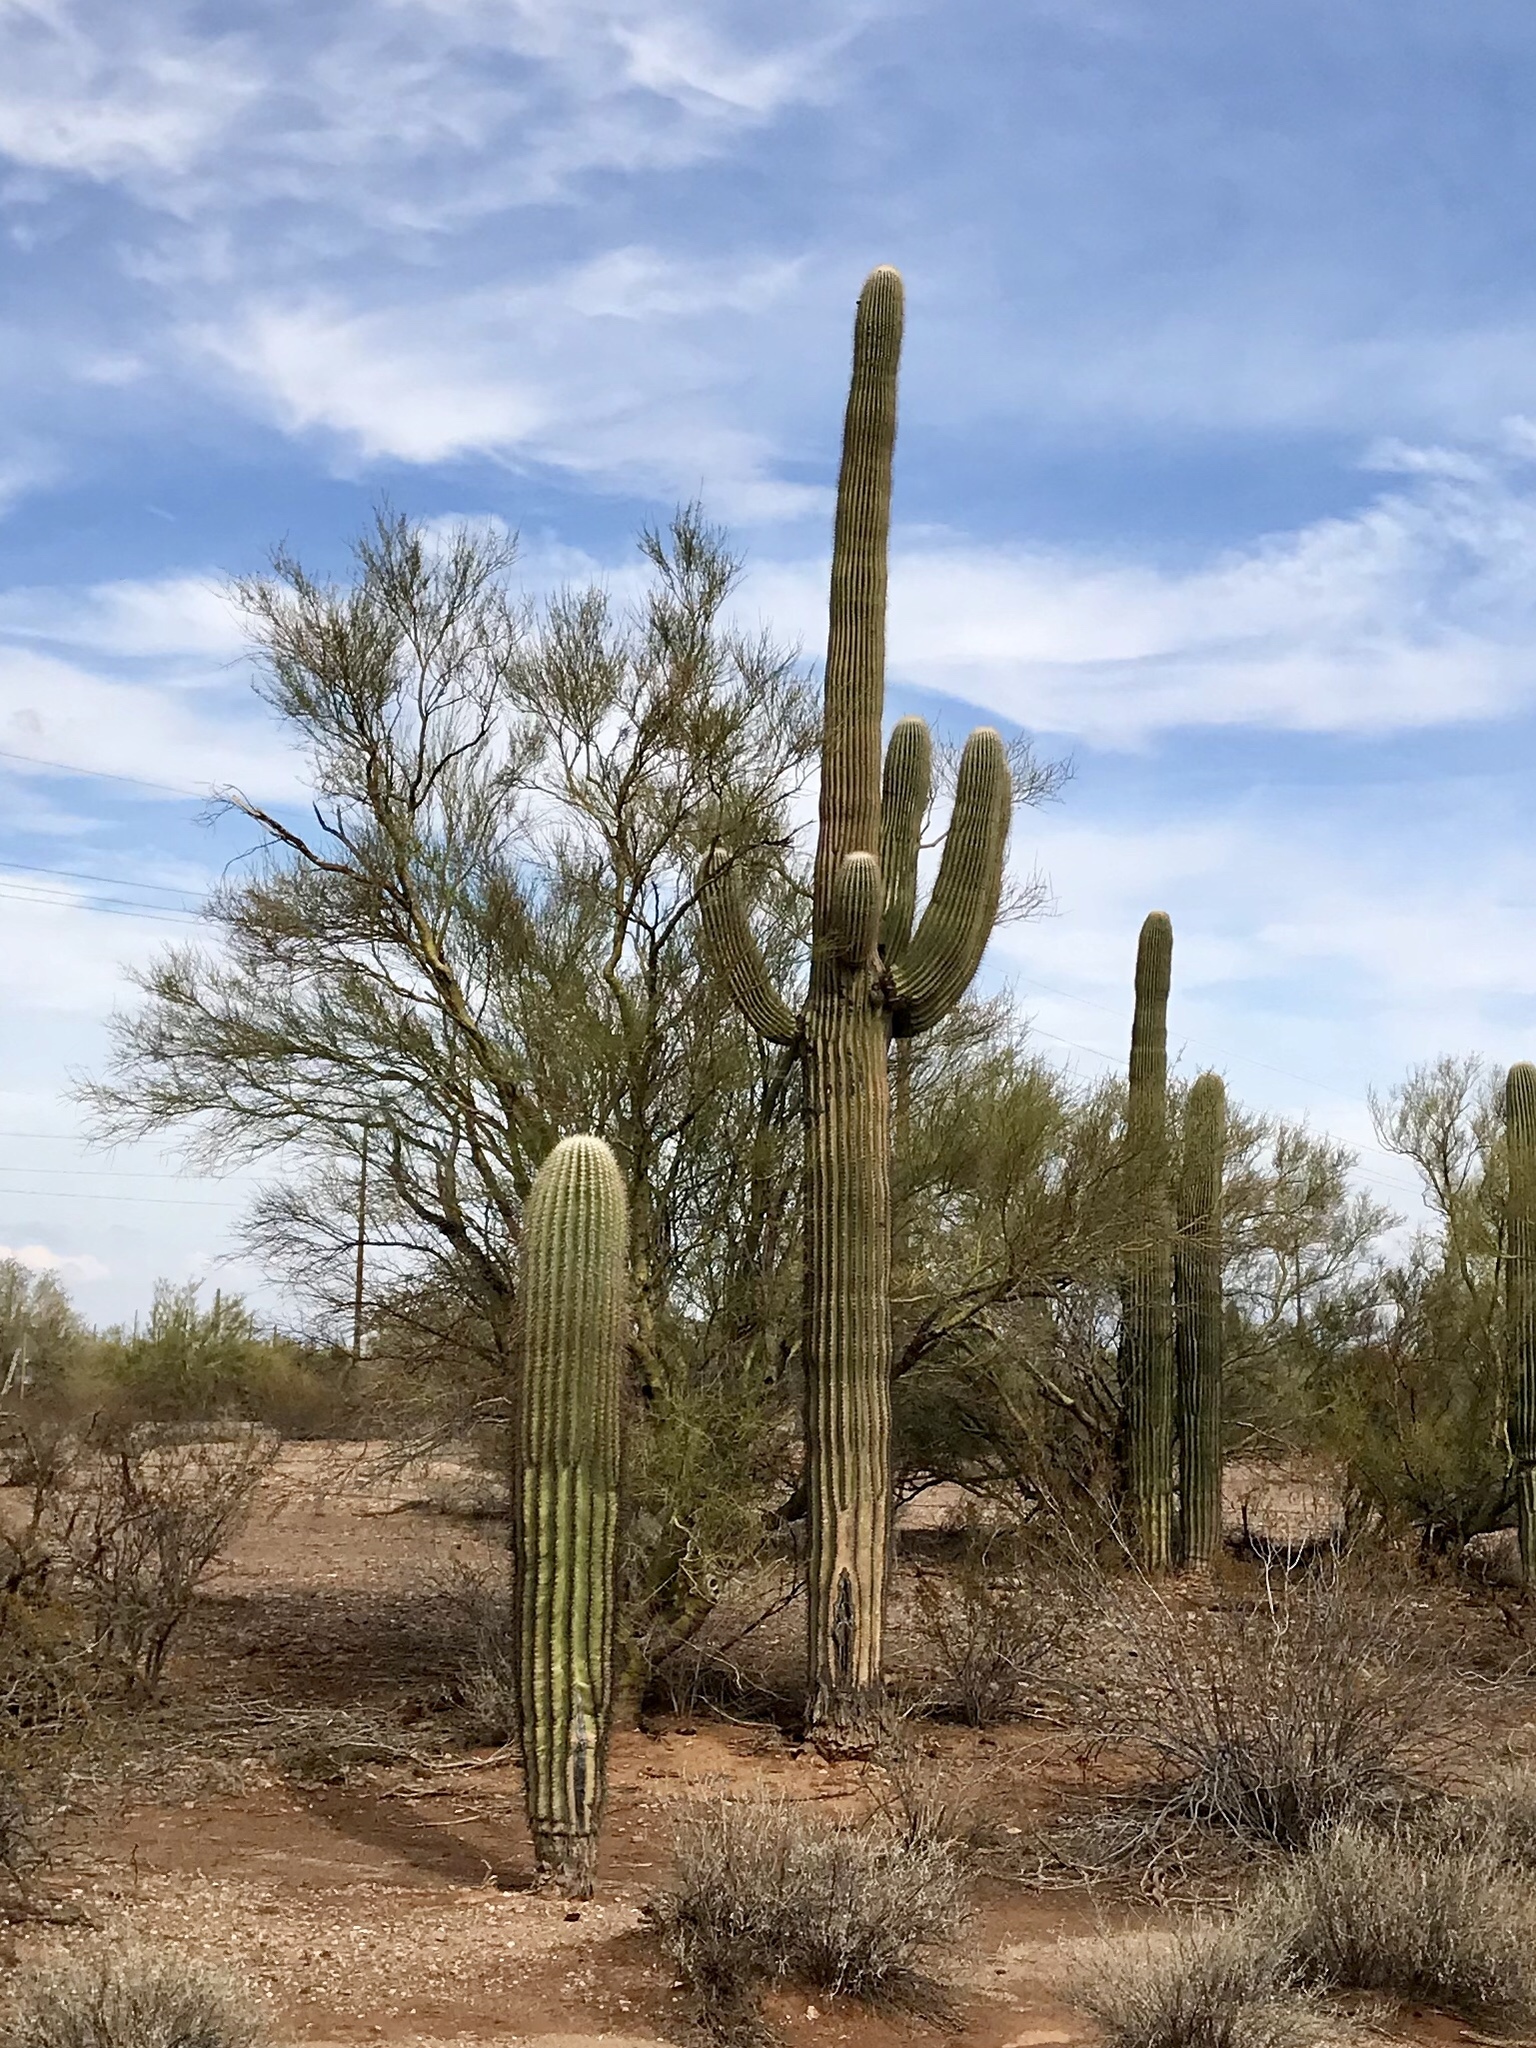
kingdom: Plantae
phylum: Tracheophyta
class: Magnoliopsida
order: Caryophyllales
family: Cactaceae
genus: Carnegiea
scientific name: Carnegiea gigantea
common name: Saguaro
